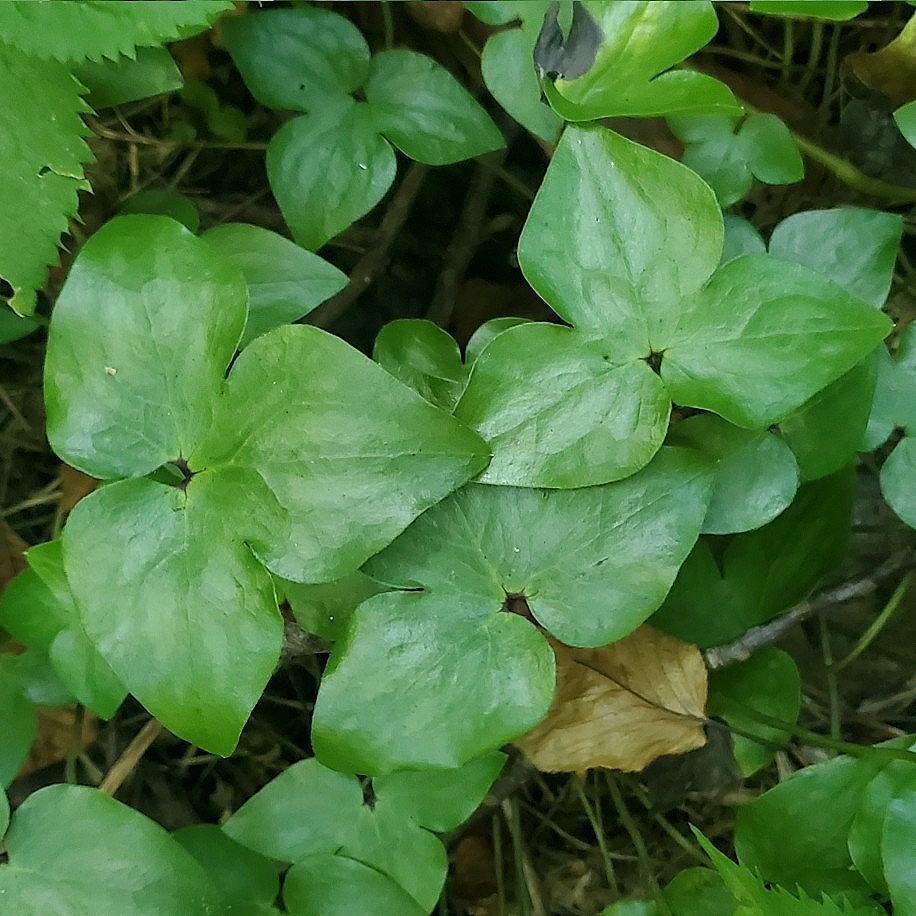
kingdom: Plantae
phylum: Tracheophyta
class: Magnoliopsida
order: Ranunculales
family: Ranunculaceae
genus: Hepatica
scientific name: Hepatica acutiloba
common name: Sharp-lobed hepatica
